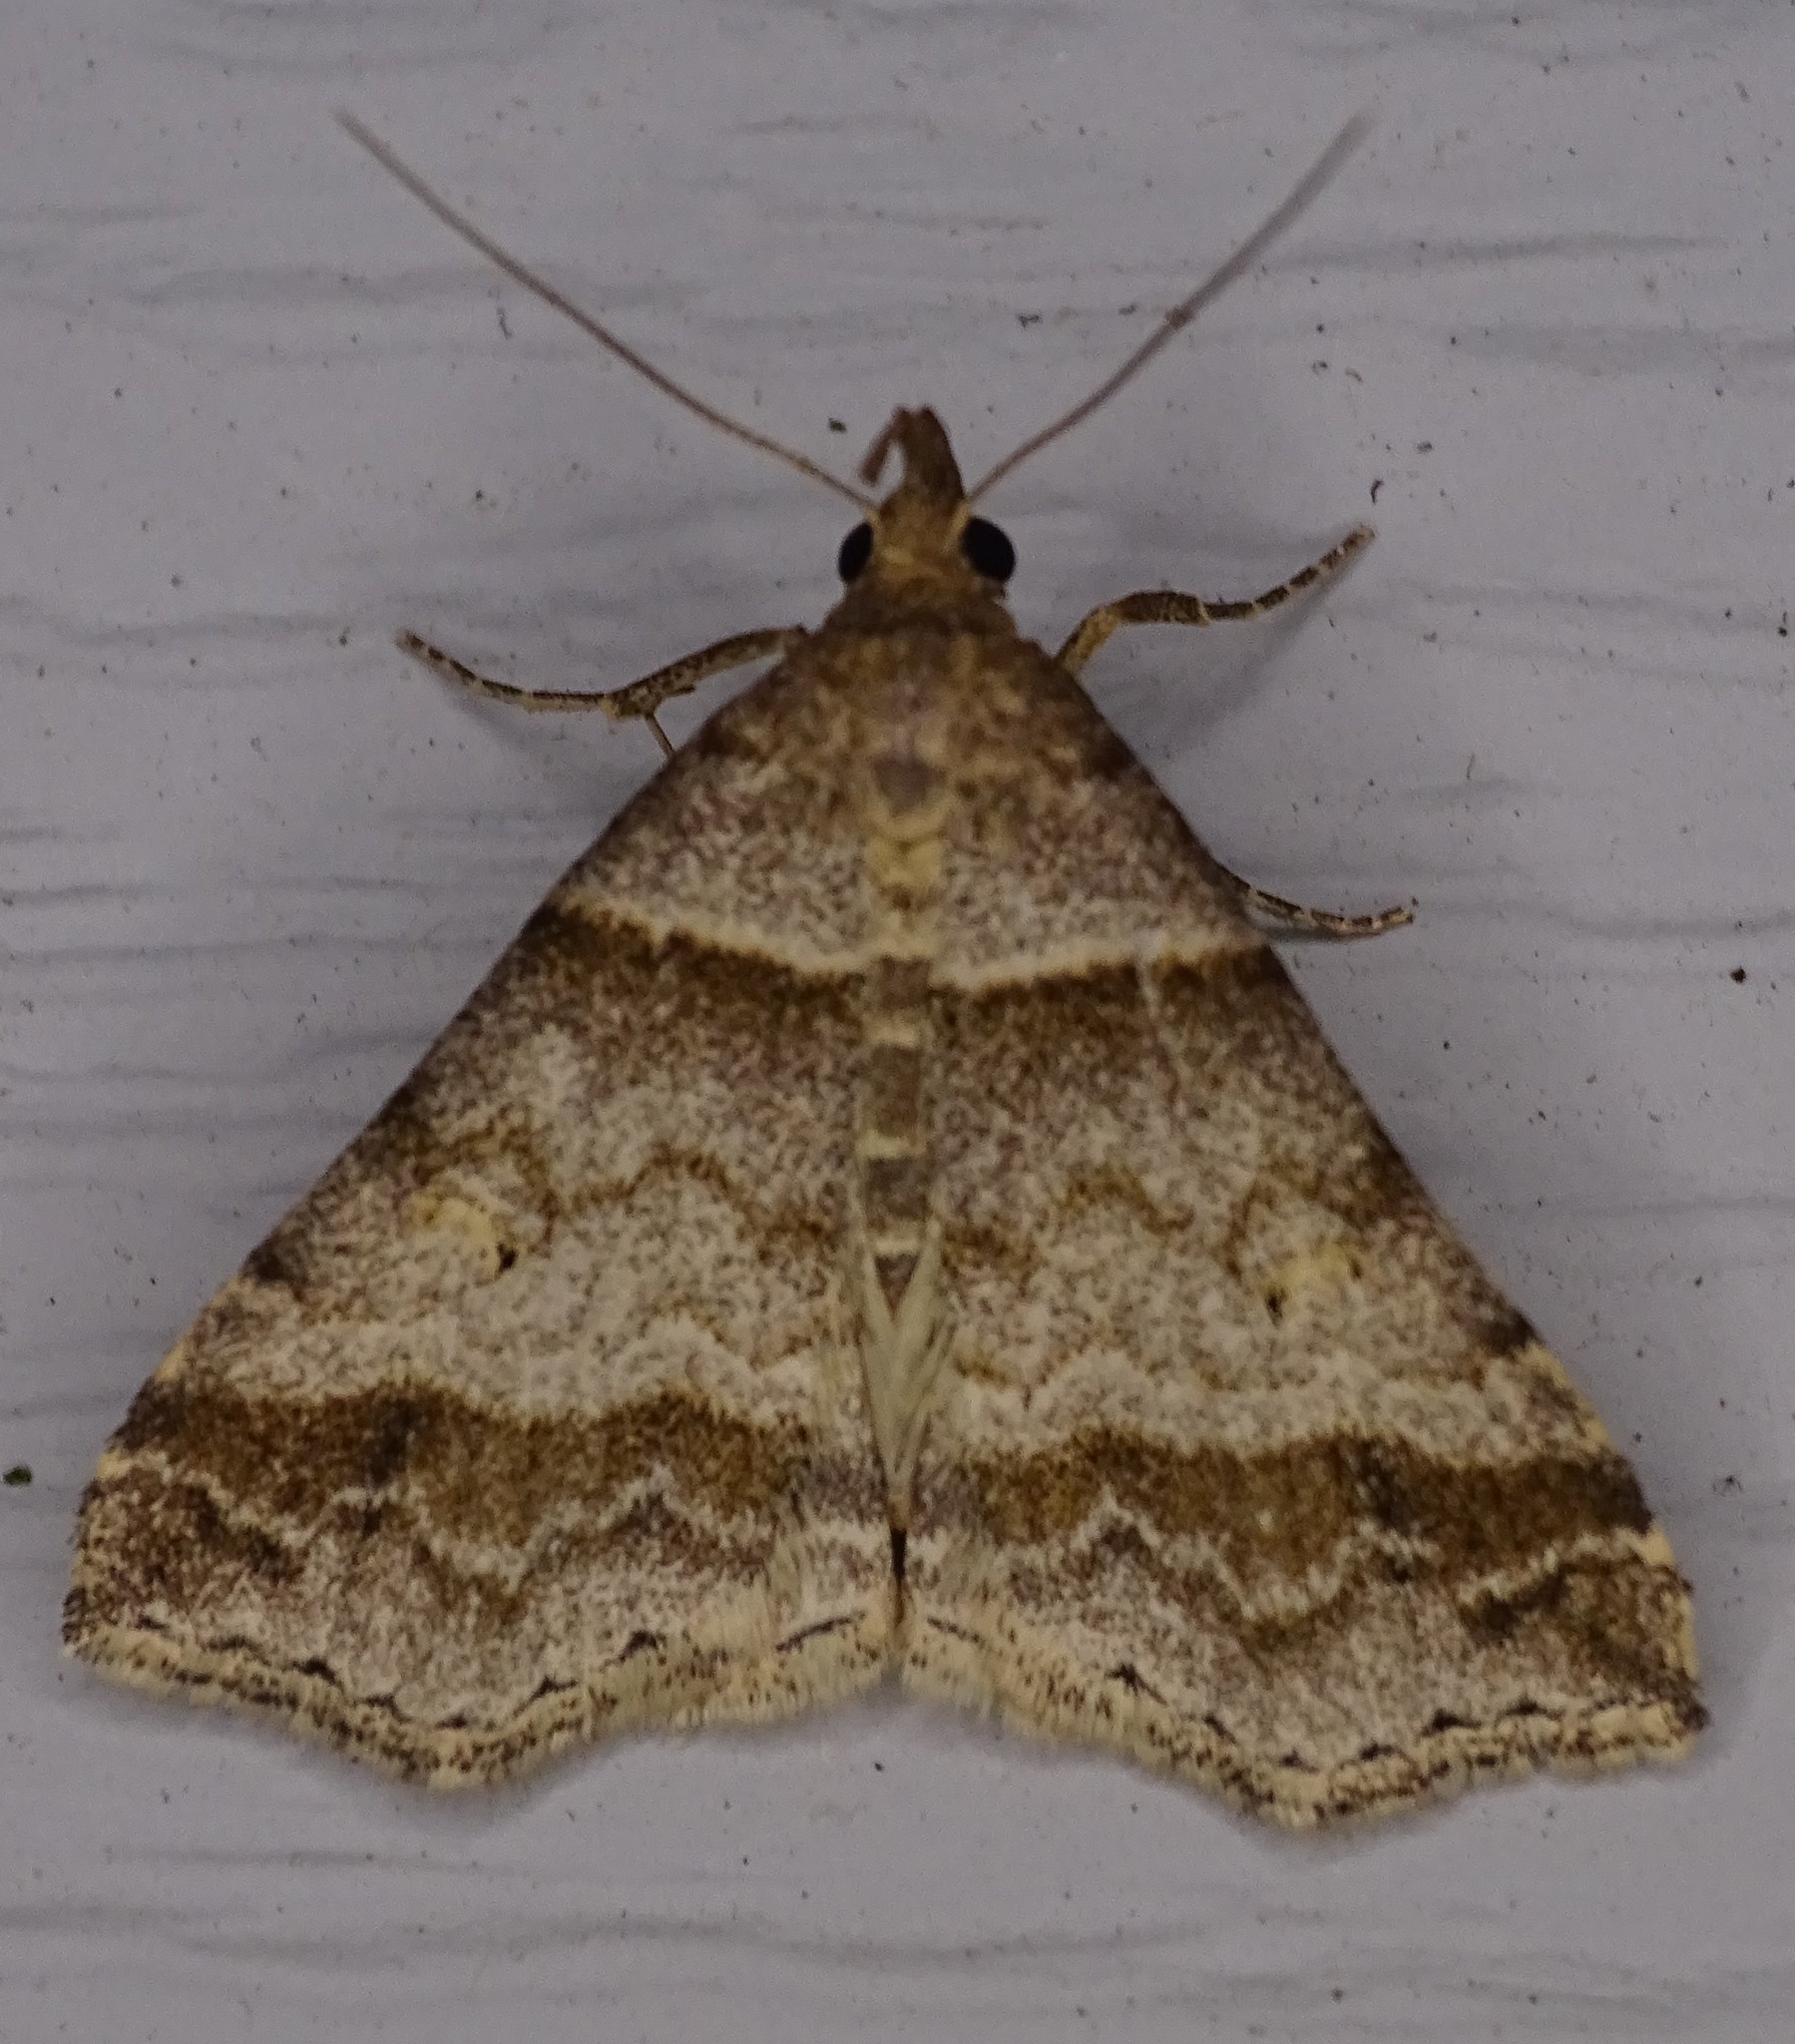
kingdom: Animalia
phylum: Arthropoda
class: Insecta
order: Lepidoptera
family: Erebidae
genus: Phaeolita
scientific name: Phaeolita pyramusalis
